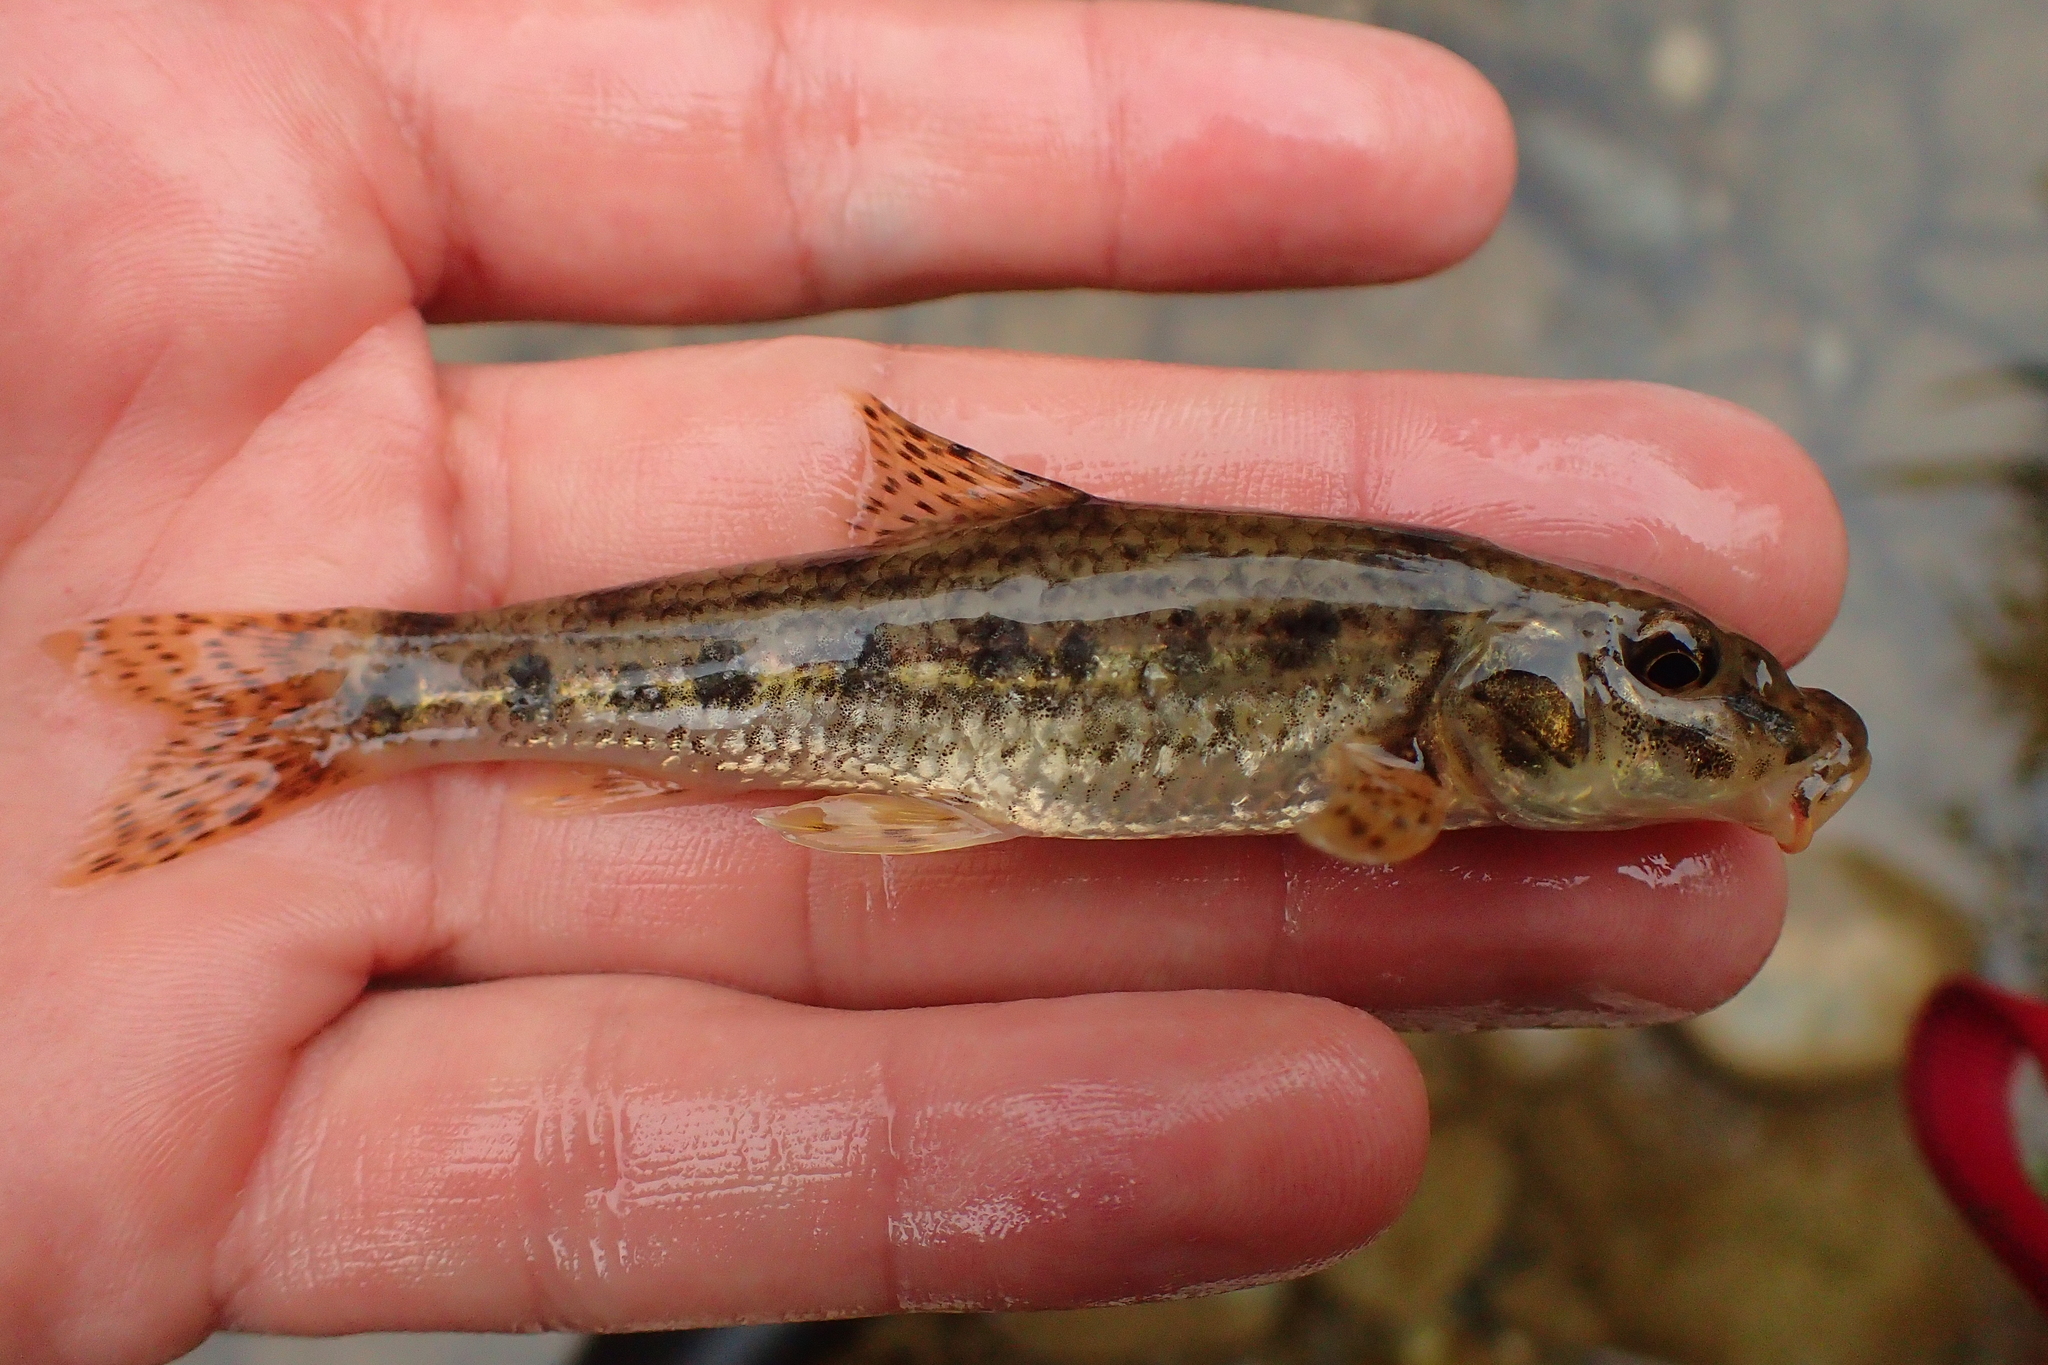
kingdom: Animalia
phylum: Chordata
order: Cypriniformes
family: Cyprinidae
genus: Gobio
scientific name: Gobio occitaniae
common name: Languedoc gudgeon
